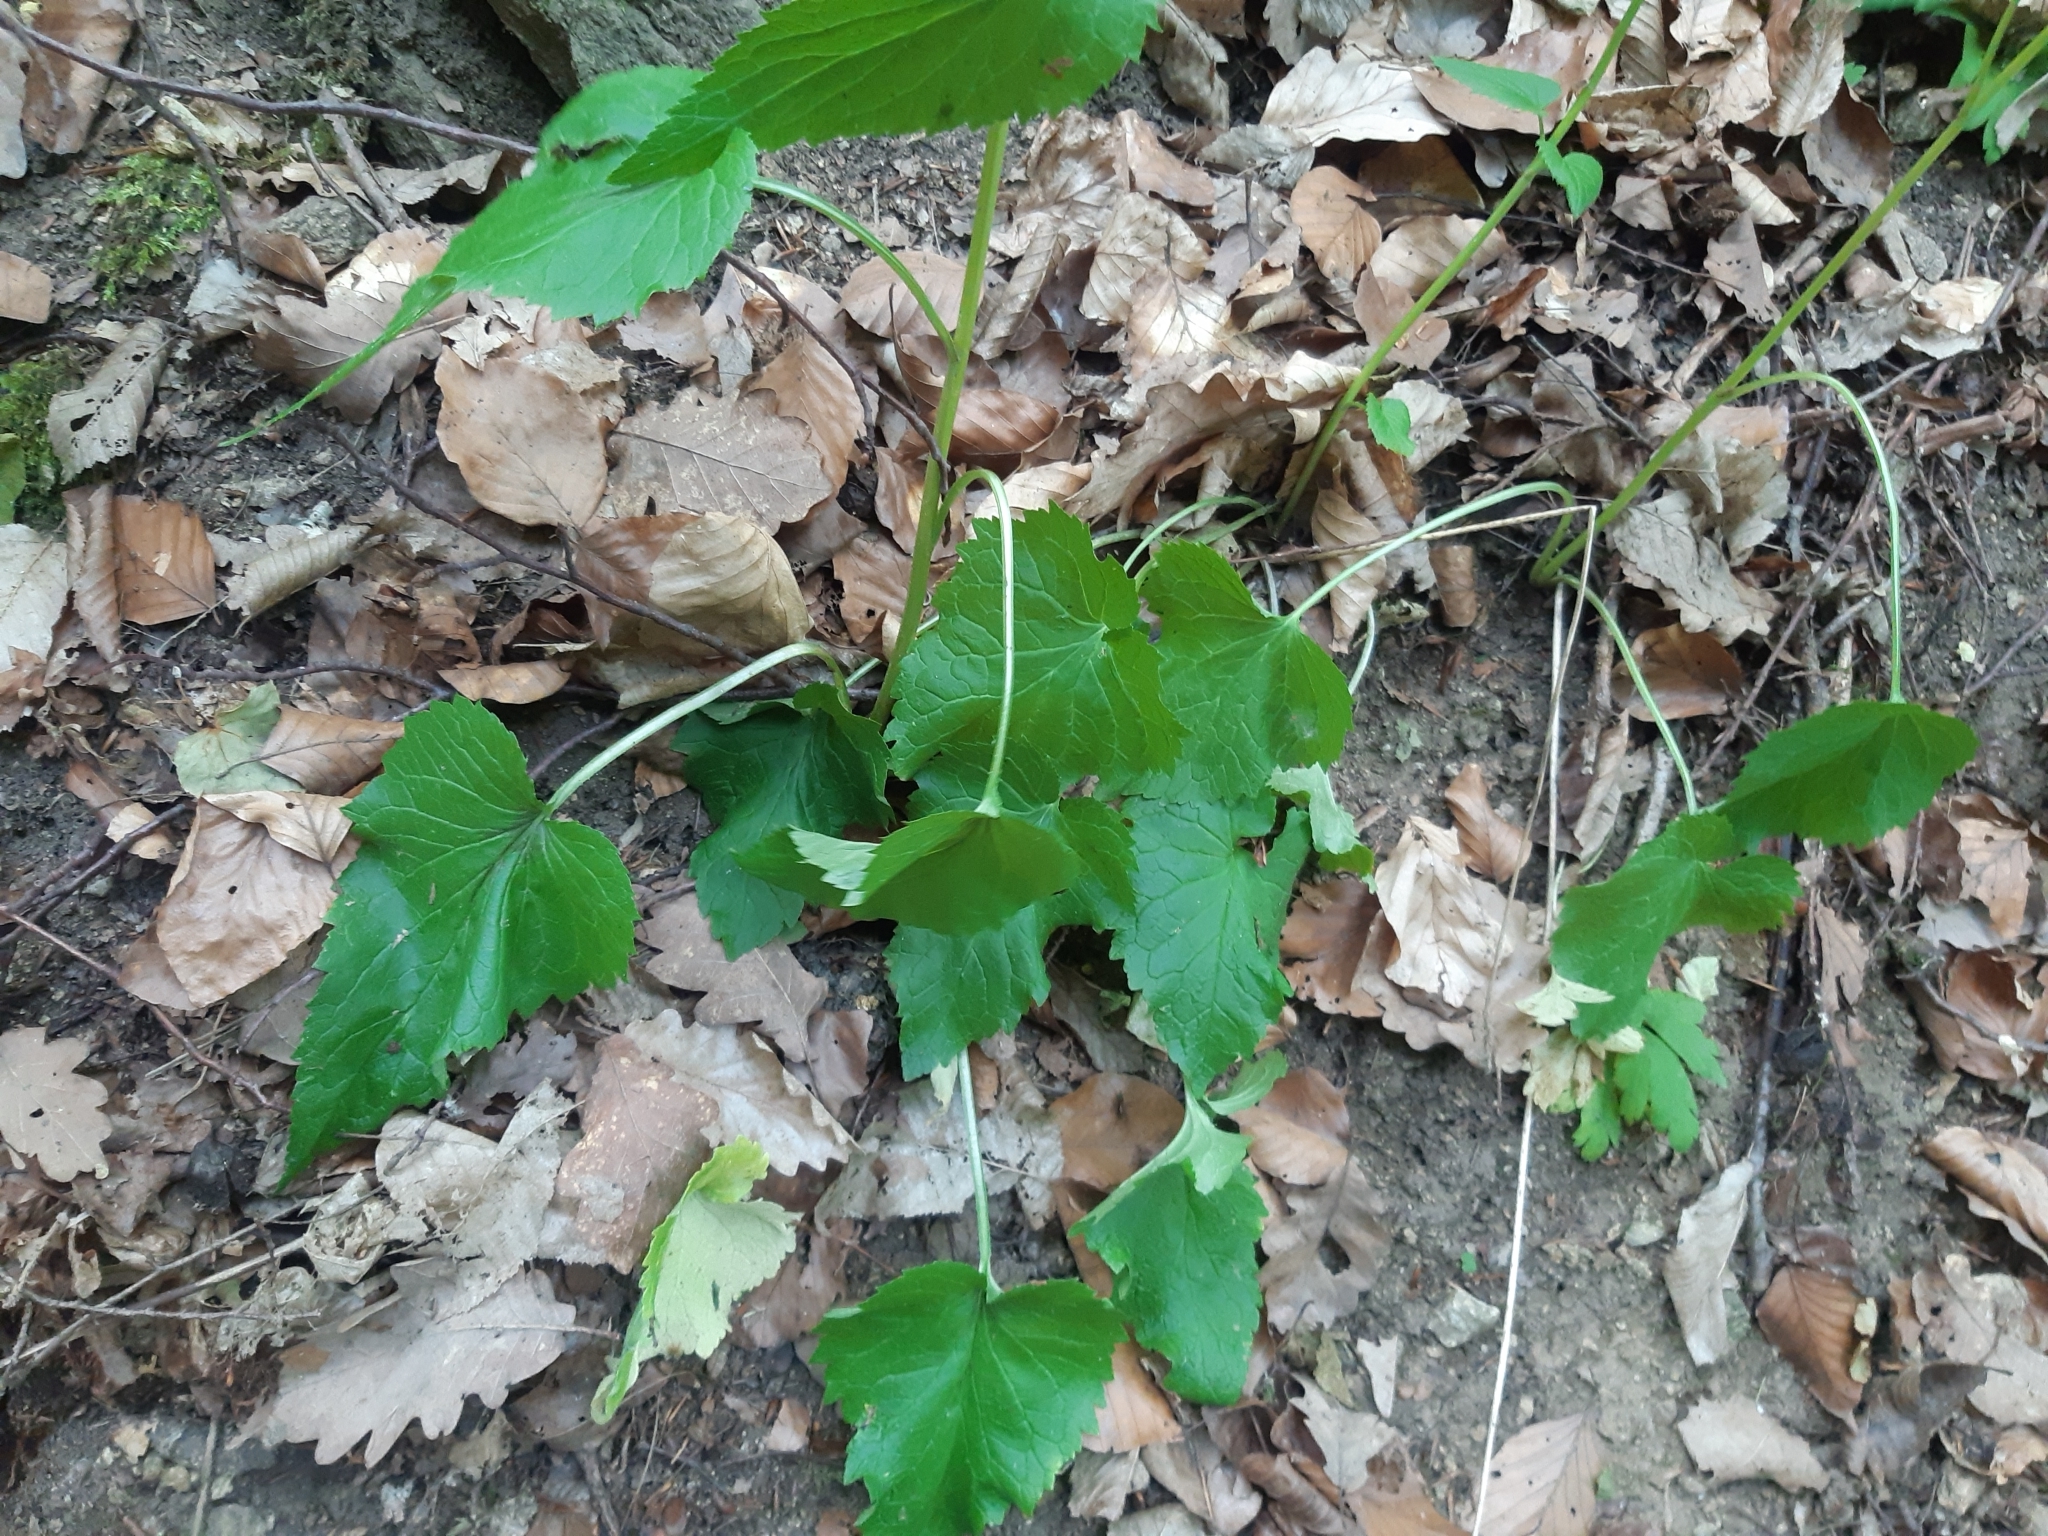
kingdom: Plantae
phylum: Tracheophyta
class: Magnoliopsida
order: Asterales
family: Campanulaceae
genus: Phyteuma
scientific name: Phyteuma spicatum
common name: Spiked rampion
